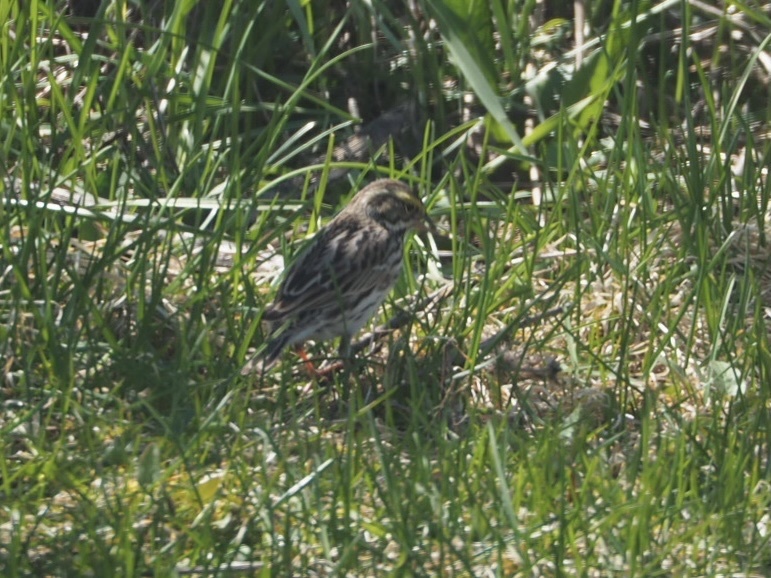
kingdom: Animalia
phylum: Chordata
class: Aves
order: Passeriformes
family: Passerellidae
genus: Passerculus
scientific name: Passerculus sandwichensis
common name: Savannah sparrow
